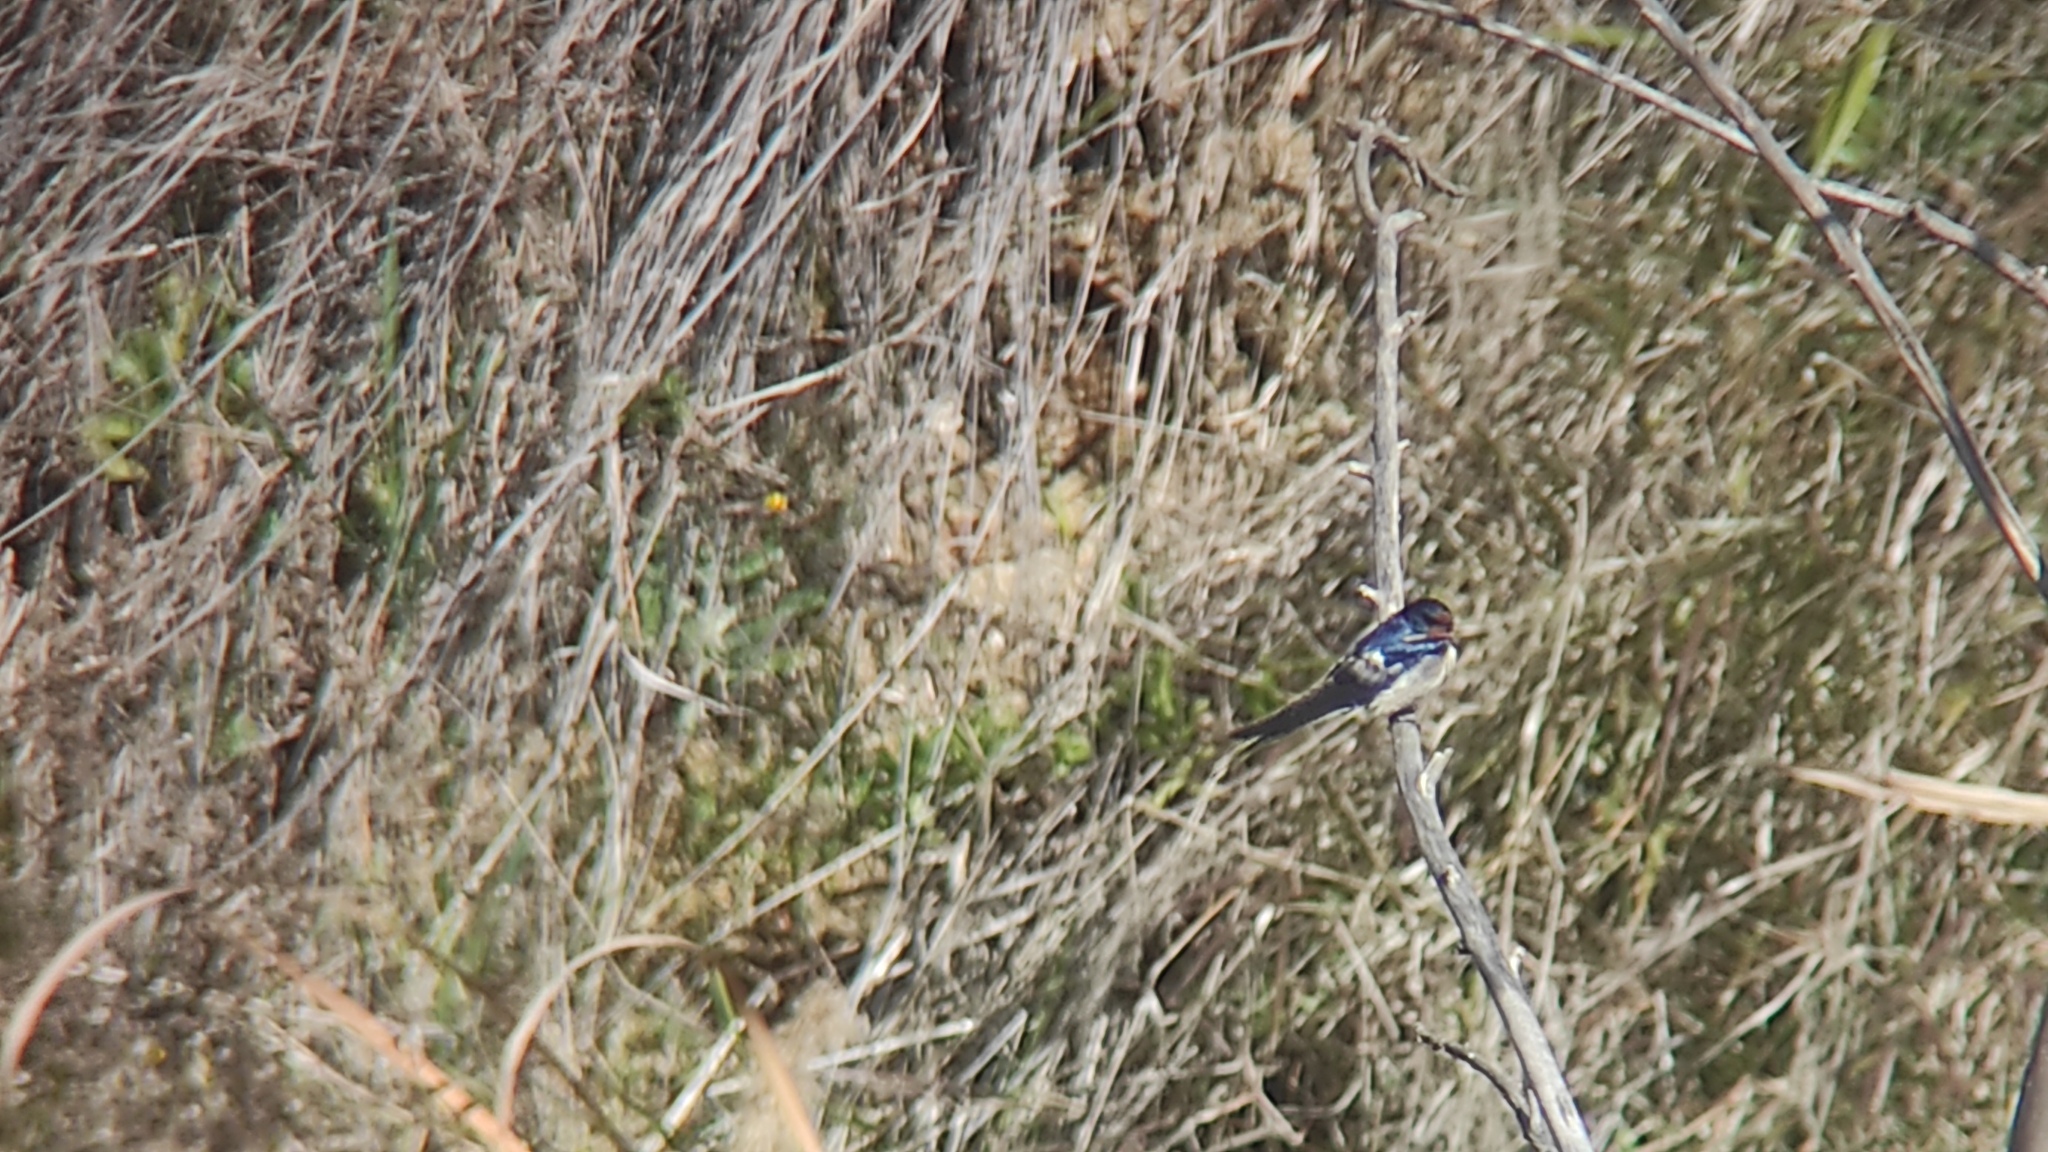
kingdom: Animalia
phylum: Chordata
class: Aves
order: Passeriformes
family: Hirundinidae
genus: Hirundo
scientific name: Hirundo rustica
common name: Barn swallow
